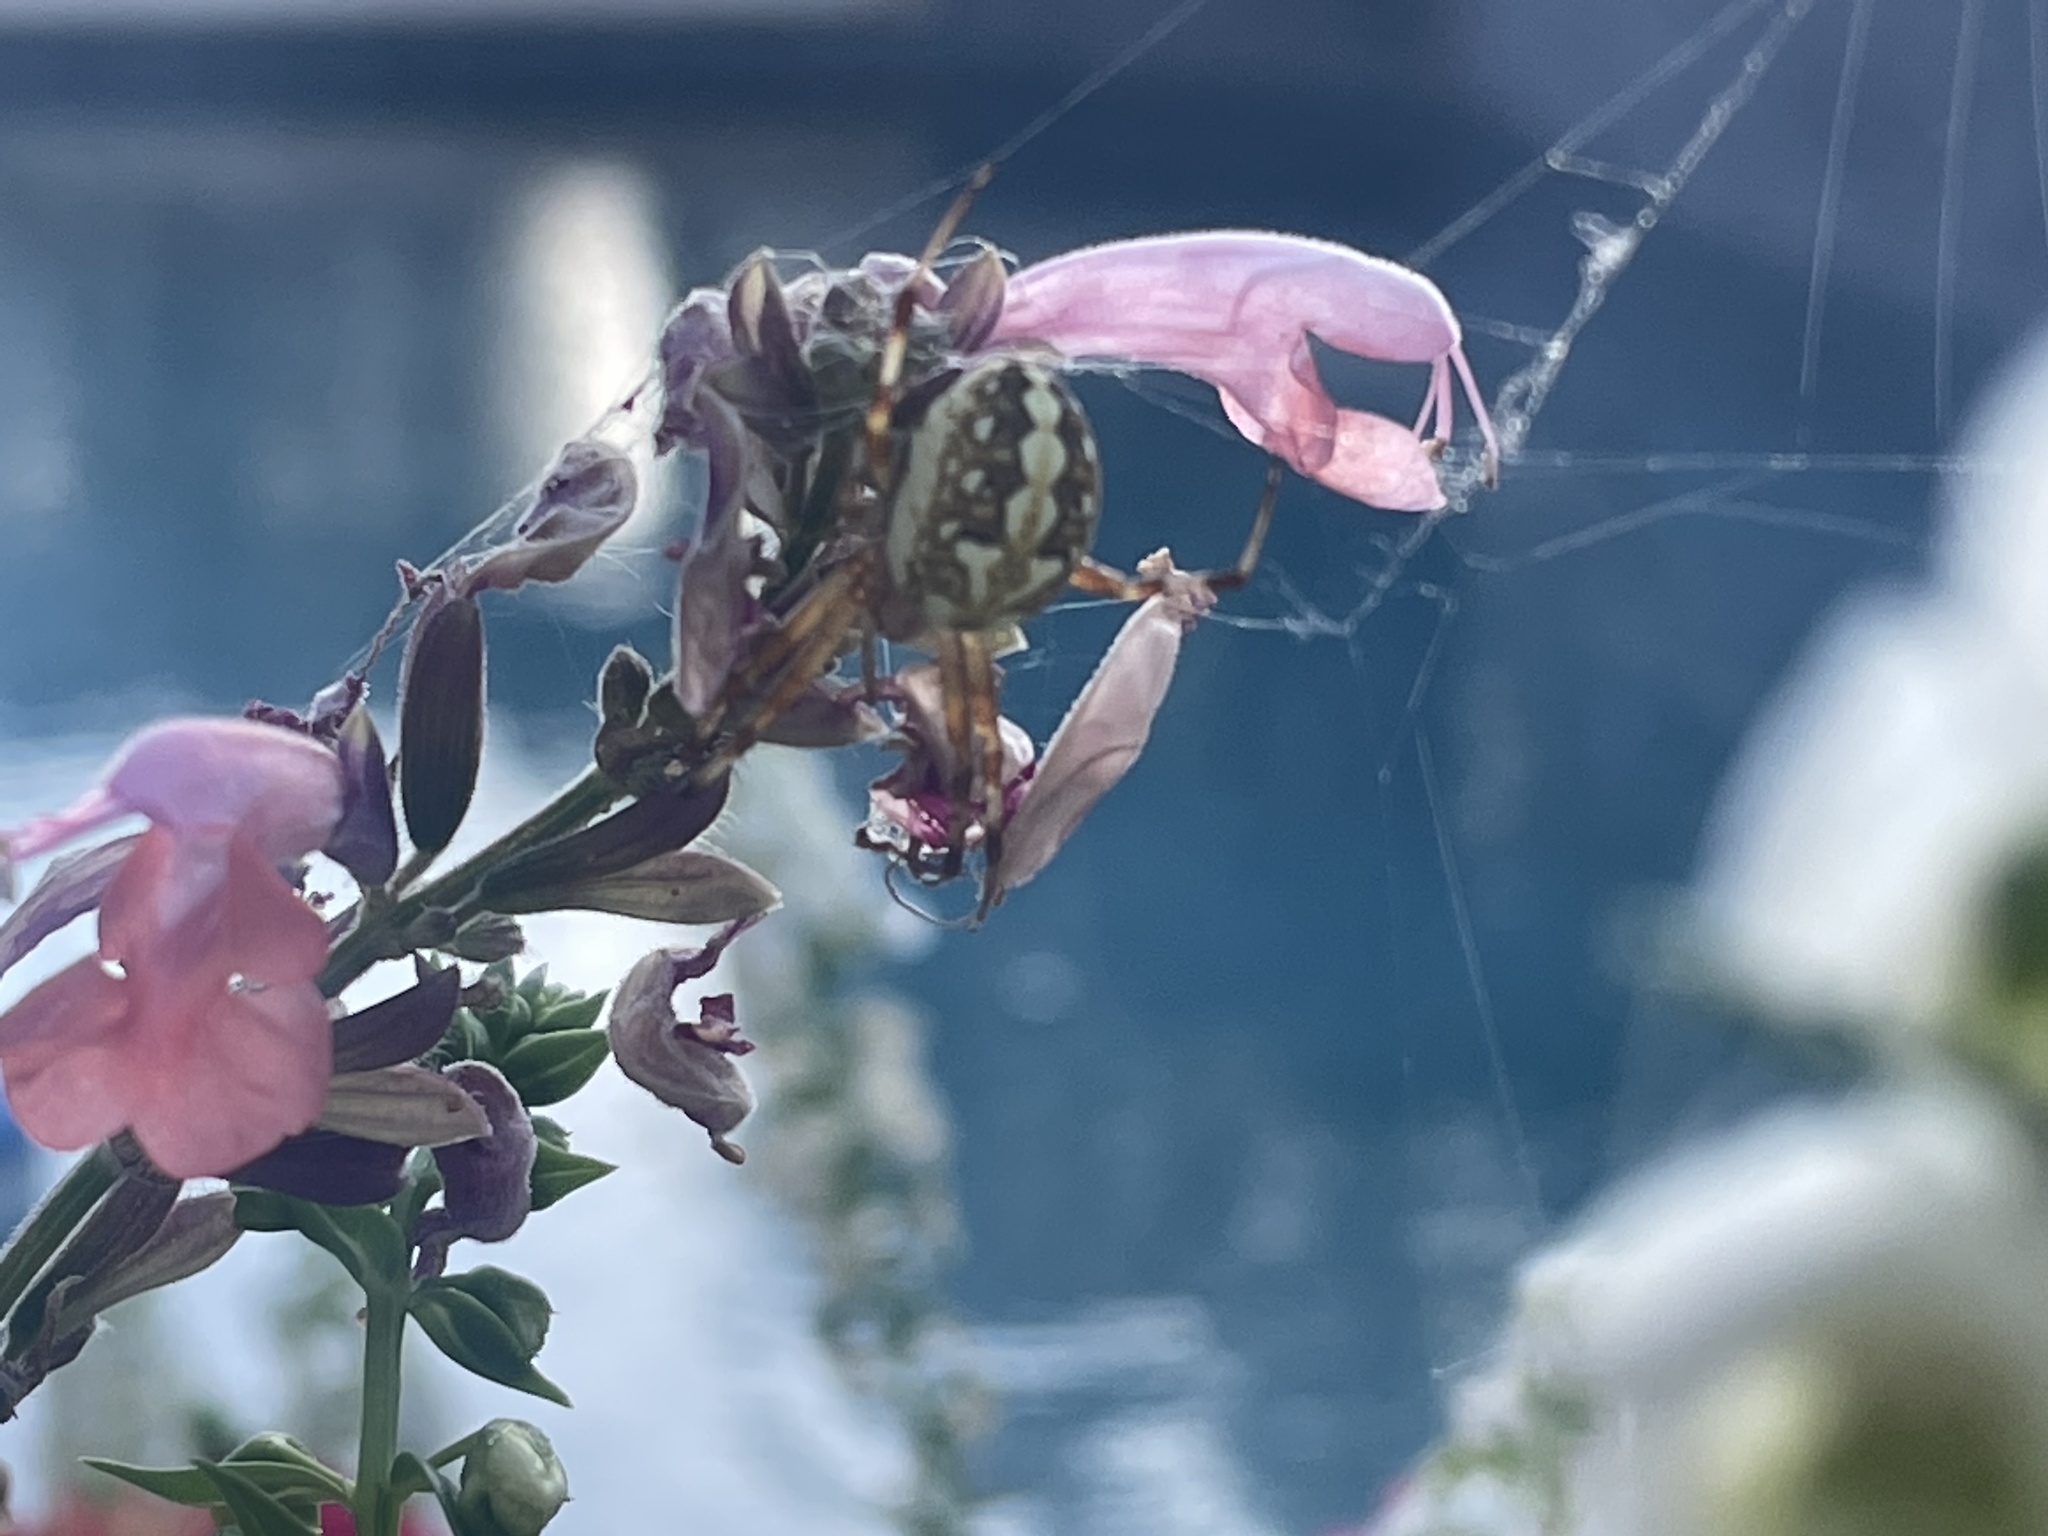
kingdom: Animalia
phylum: Arthropoda
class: Arachnida
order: Araneae
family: Araneidae
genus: Neoscona
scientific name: Neoscona oaxacensis
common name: Orb weavers
